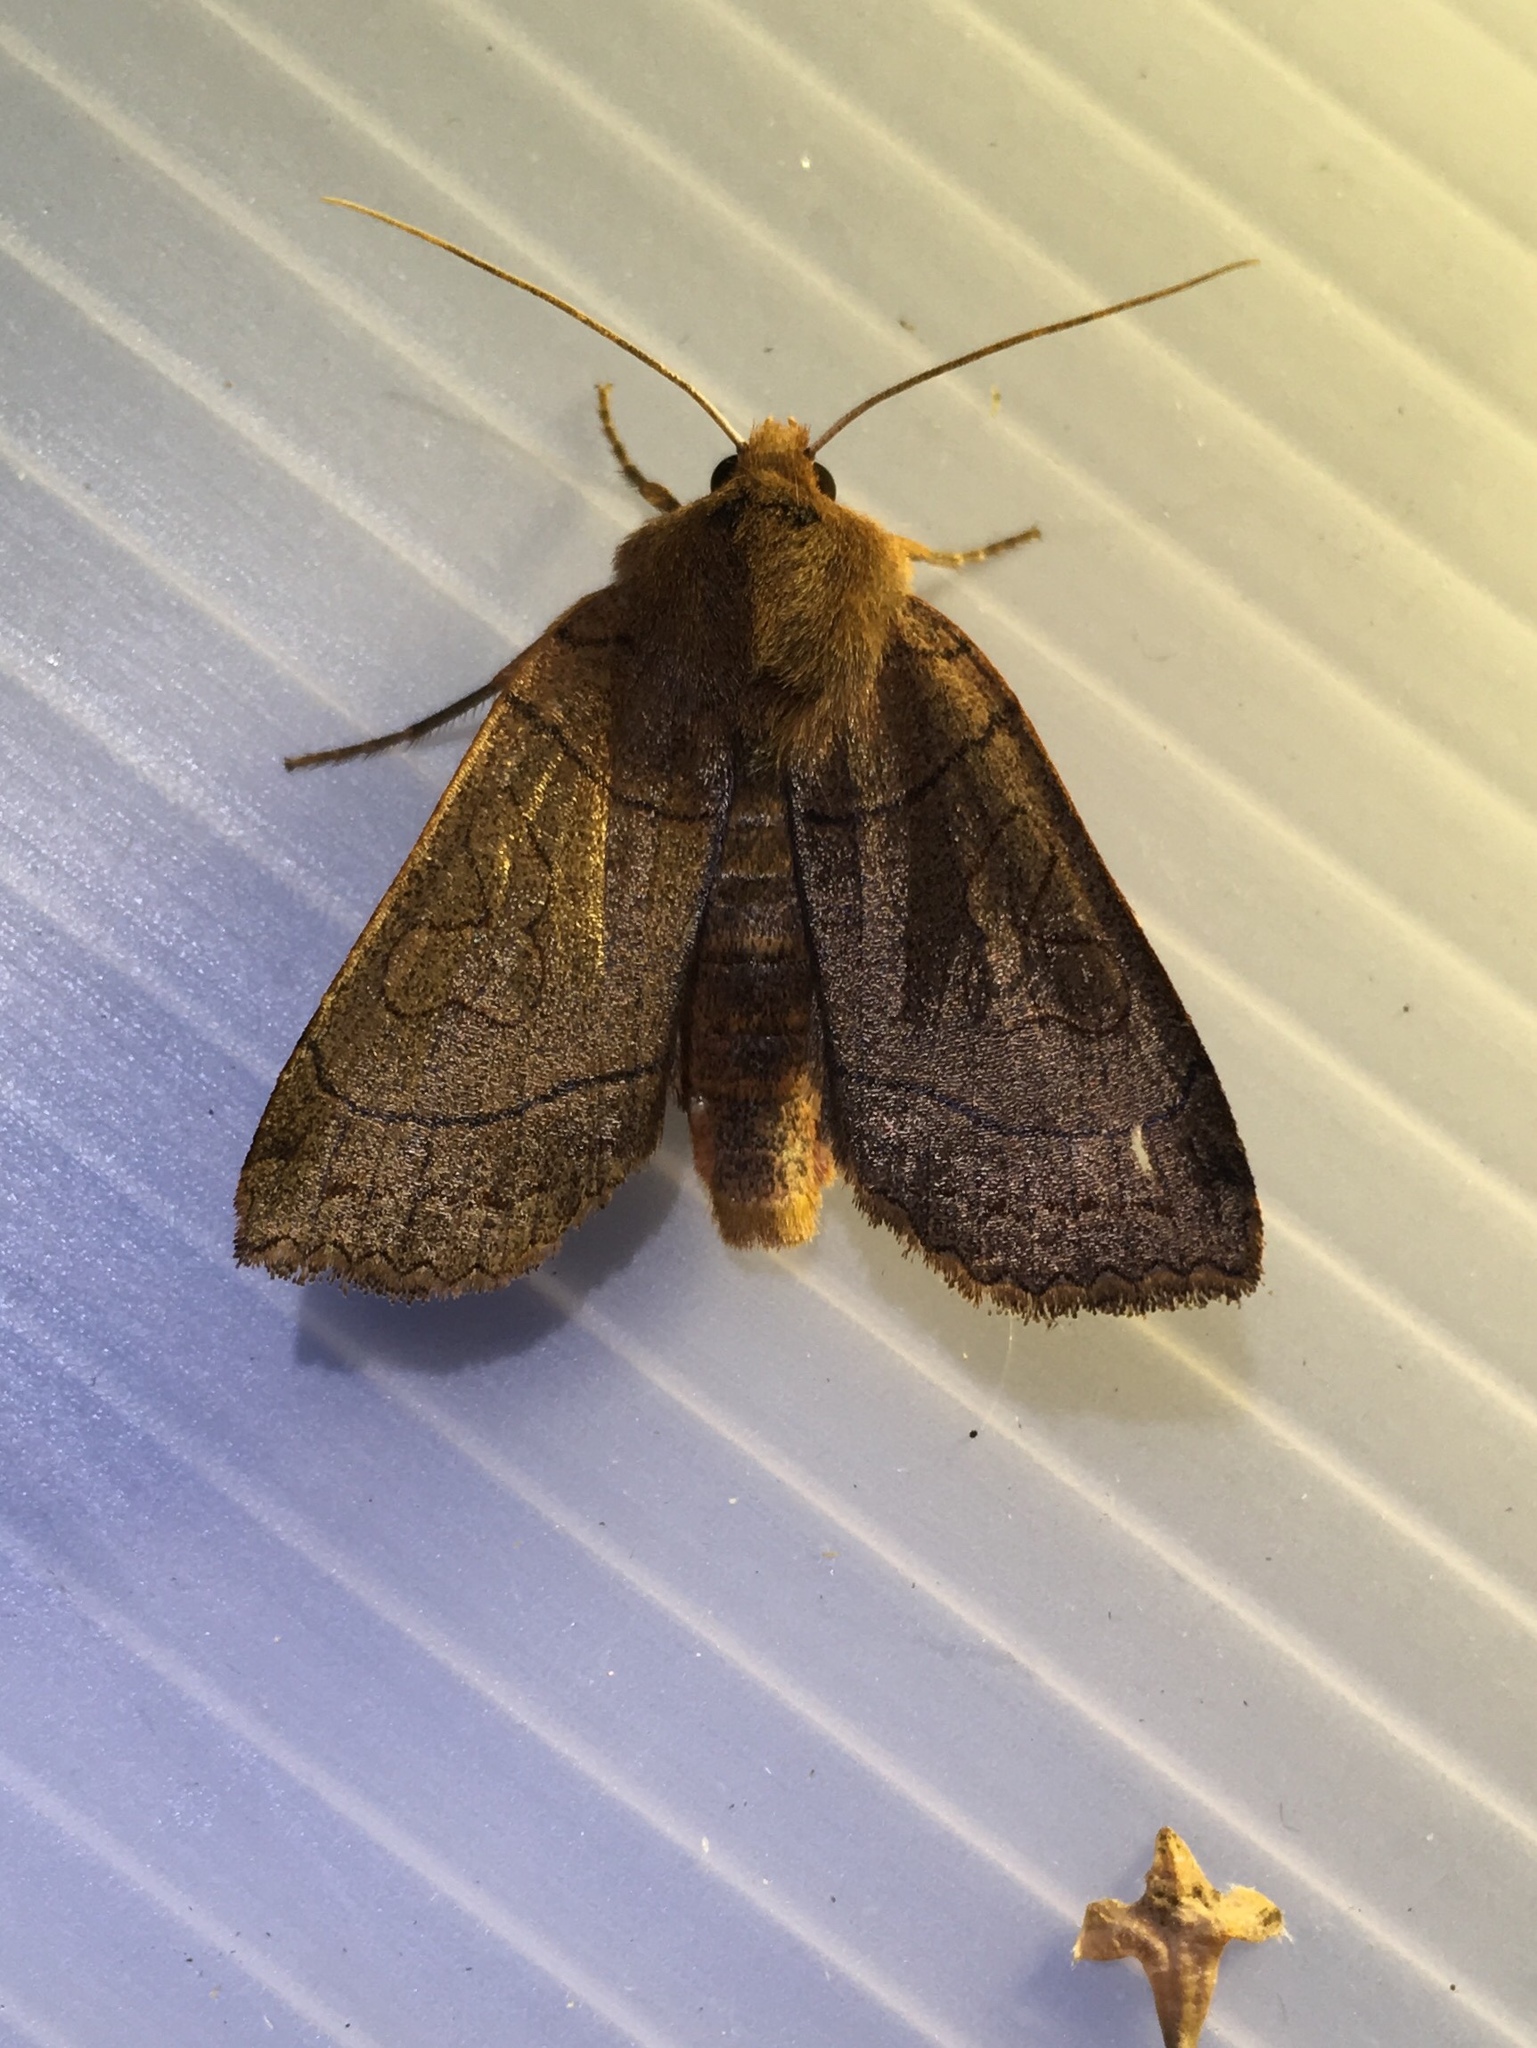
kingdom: Animalia
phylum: Arthropoda
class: Insecta
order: Lepidoptera
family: Noctuidae
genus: Metaxaglaea
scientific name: Metaxaglaea inulta
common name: Unsated sallow
